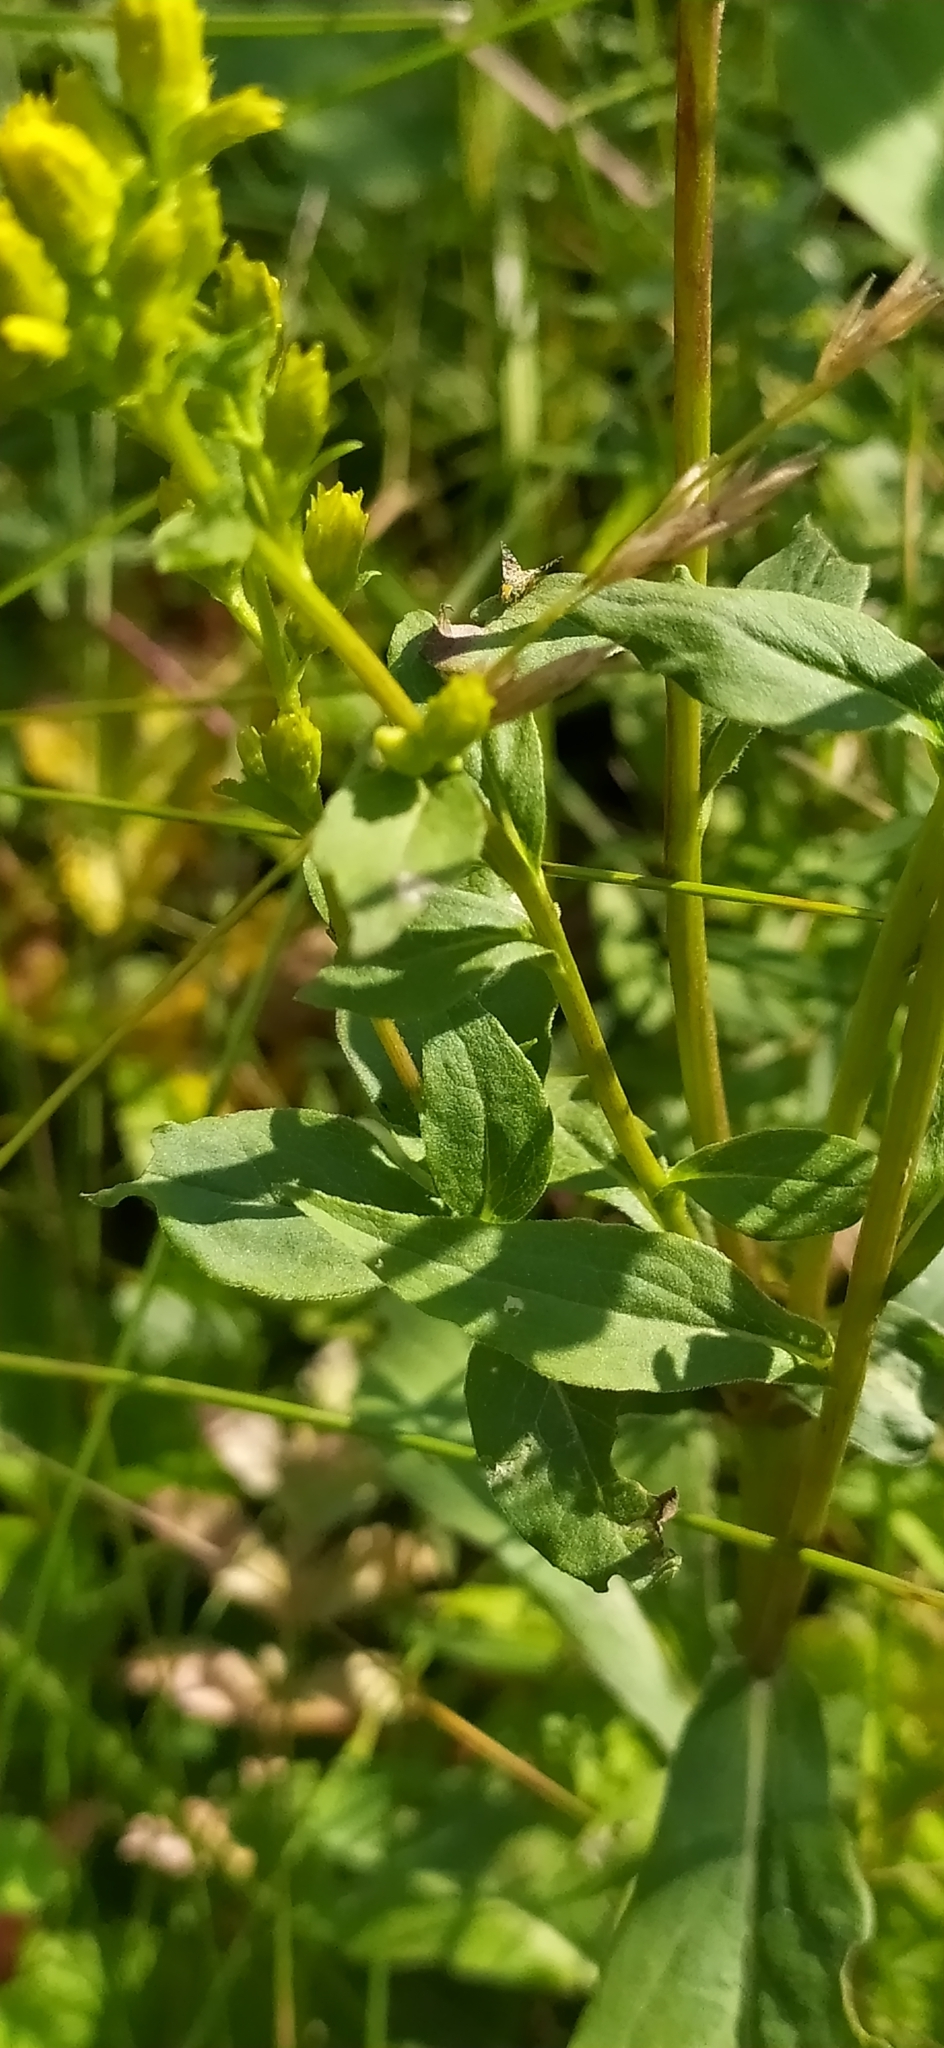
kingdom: Plantae
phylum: Tracheophyta
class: Magnoliopsida
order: Asterales
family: Asteraceae
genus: Solidago
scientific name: Solidago virgaurea
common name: Goldenrod
